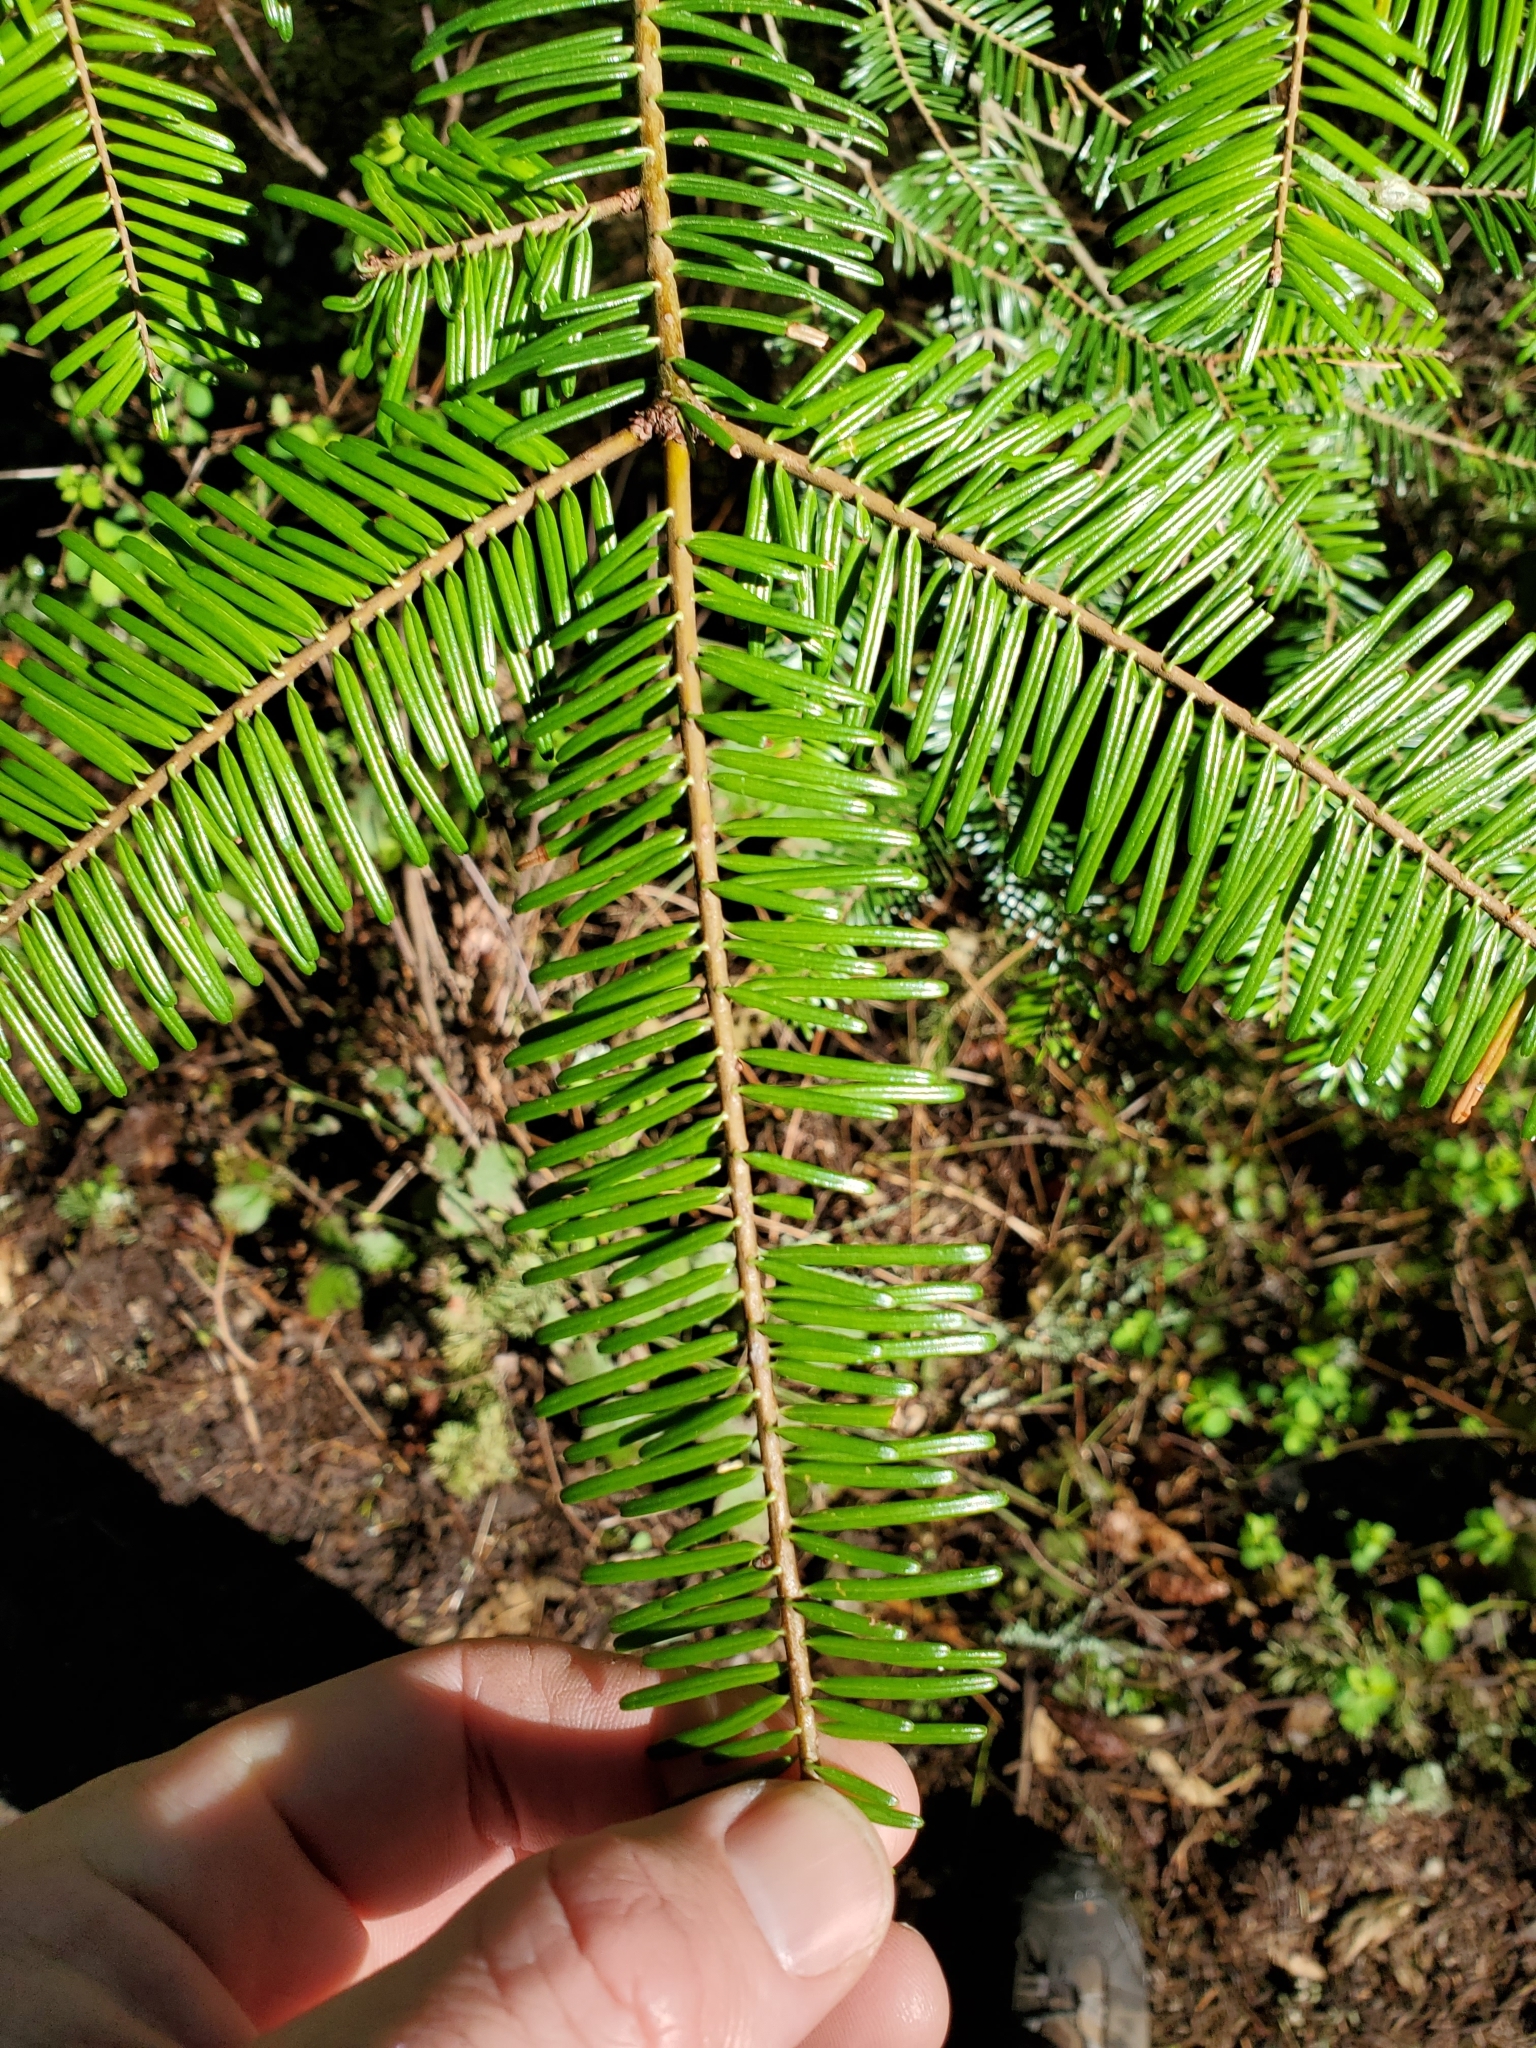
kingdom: Plantae
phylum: Tracheophyta
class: Pinopsida
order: Pinales
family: Pinaceae
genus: Abies
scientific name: Abies grandis
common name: Giant fir
